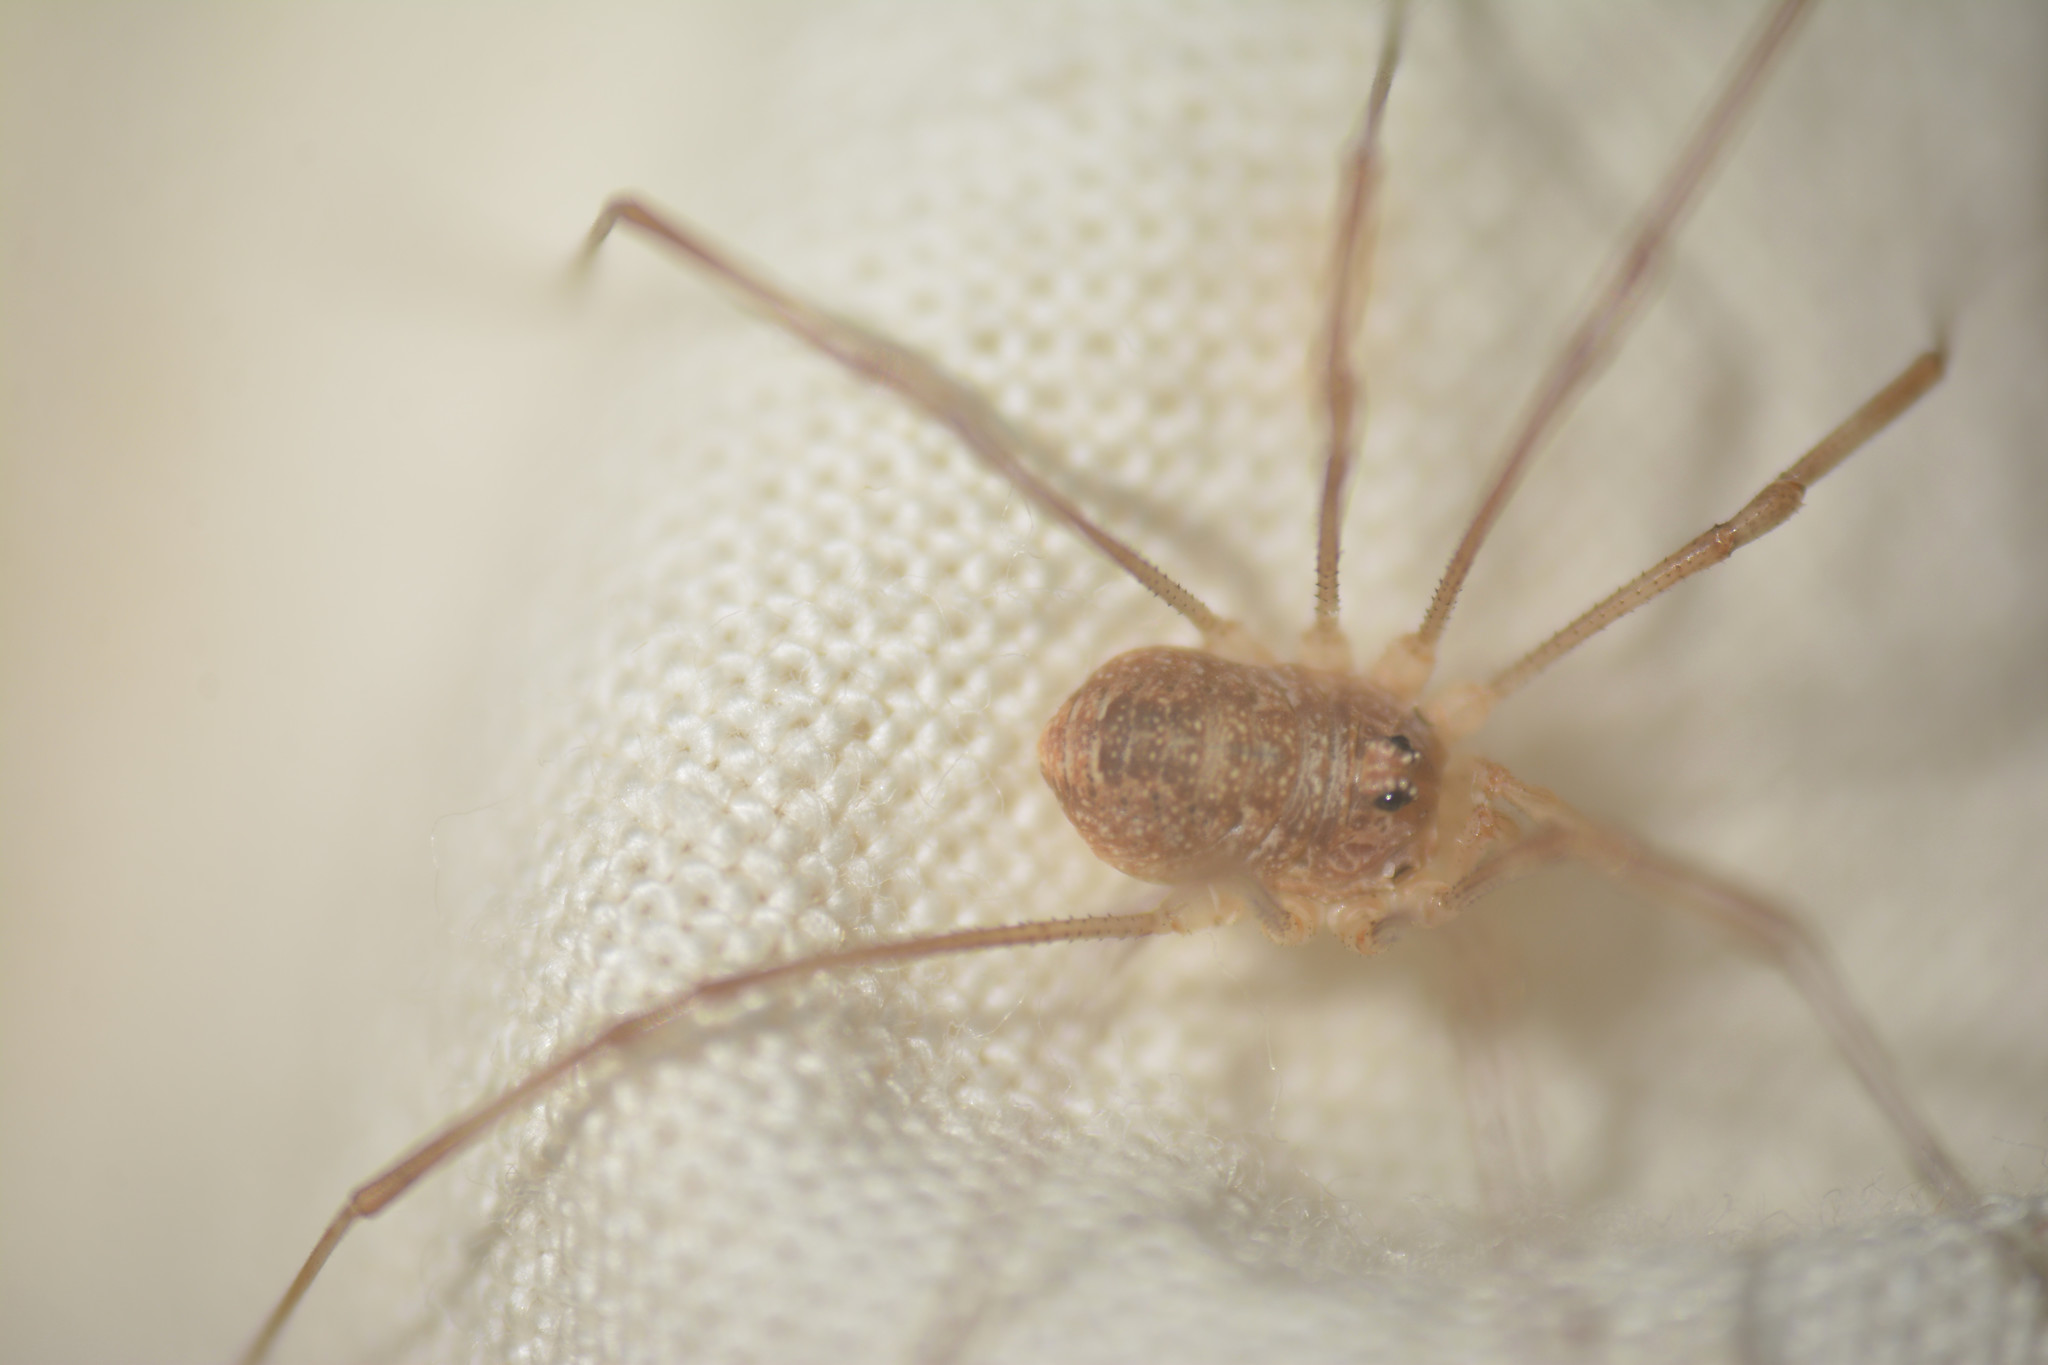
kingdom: Animalia
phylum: Arthropoda
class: Arachnida
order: Opiliones
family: Phalangiidae
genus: Rilaena
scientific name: Rilaena triangularis
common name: Spring harvestman
